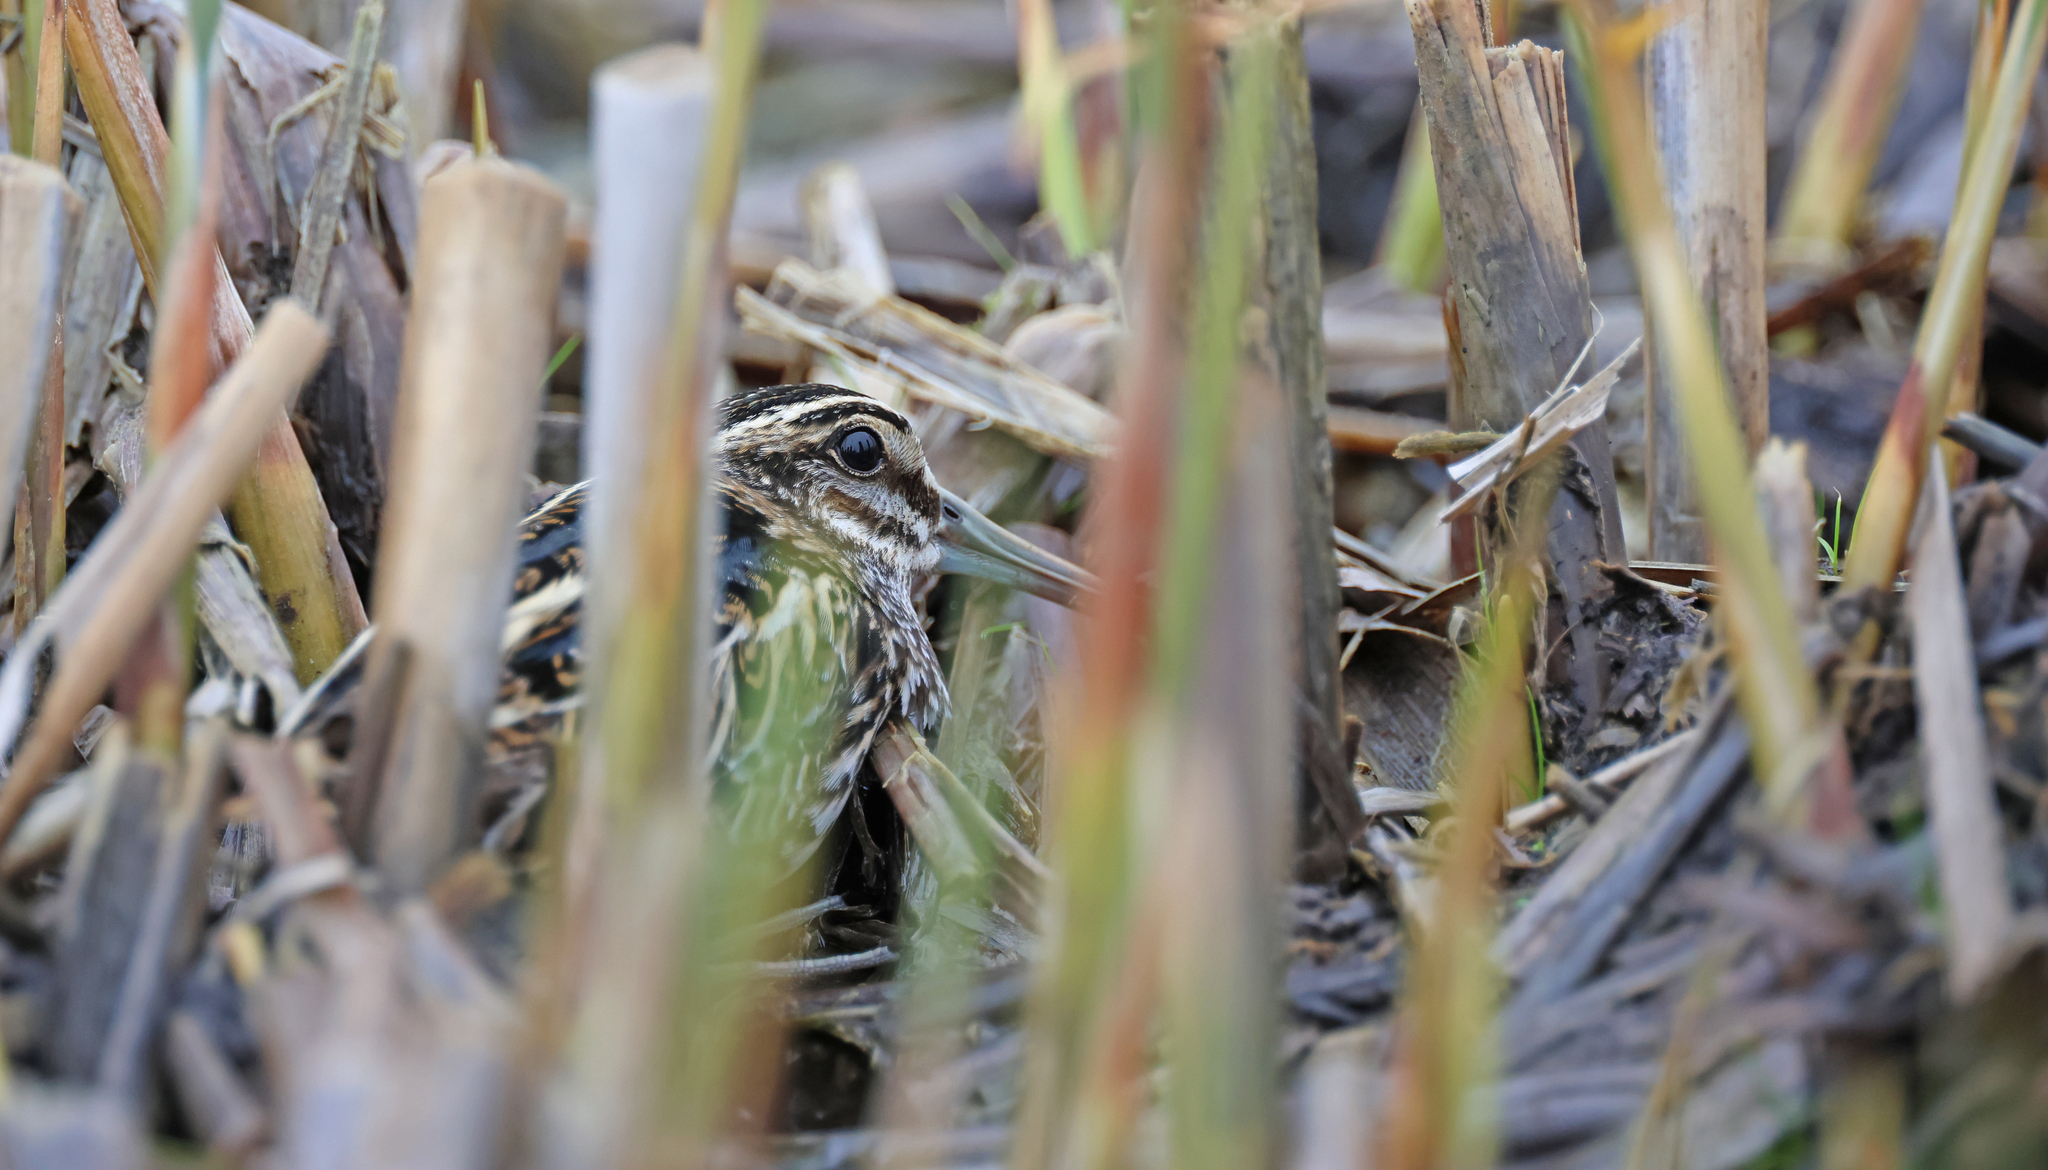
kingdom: Animalia
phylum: Chordata
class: Aves
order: Charadriiformes
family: Scolopacidae
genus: Lymnocryptes
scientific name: Lymnocryptes minimus
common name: Jack snipe
